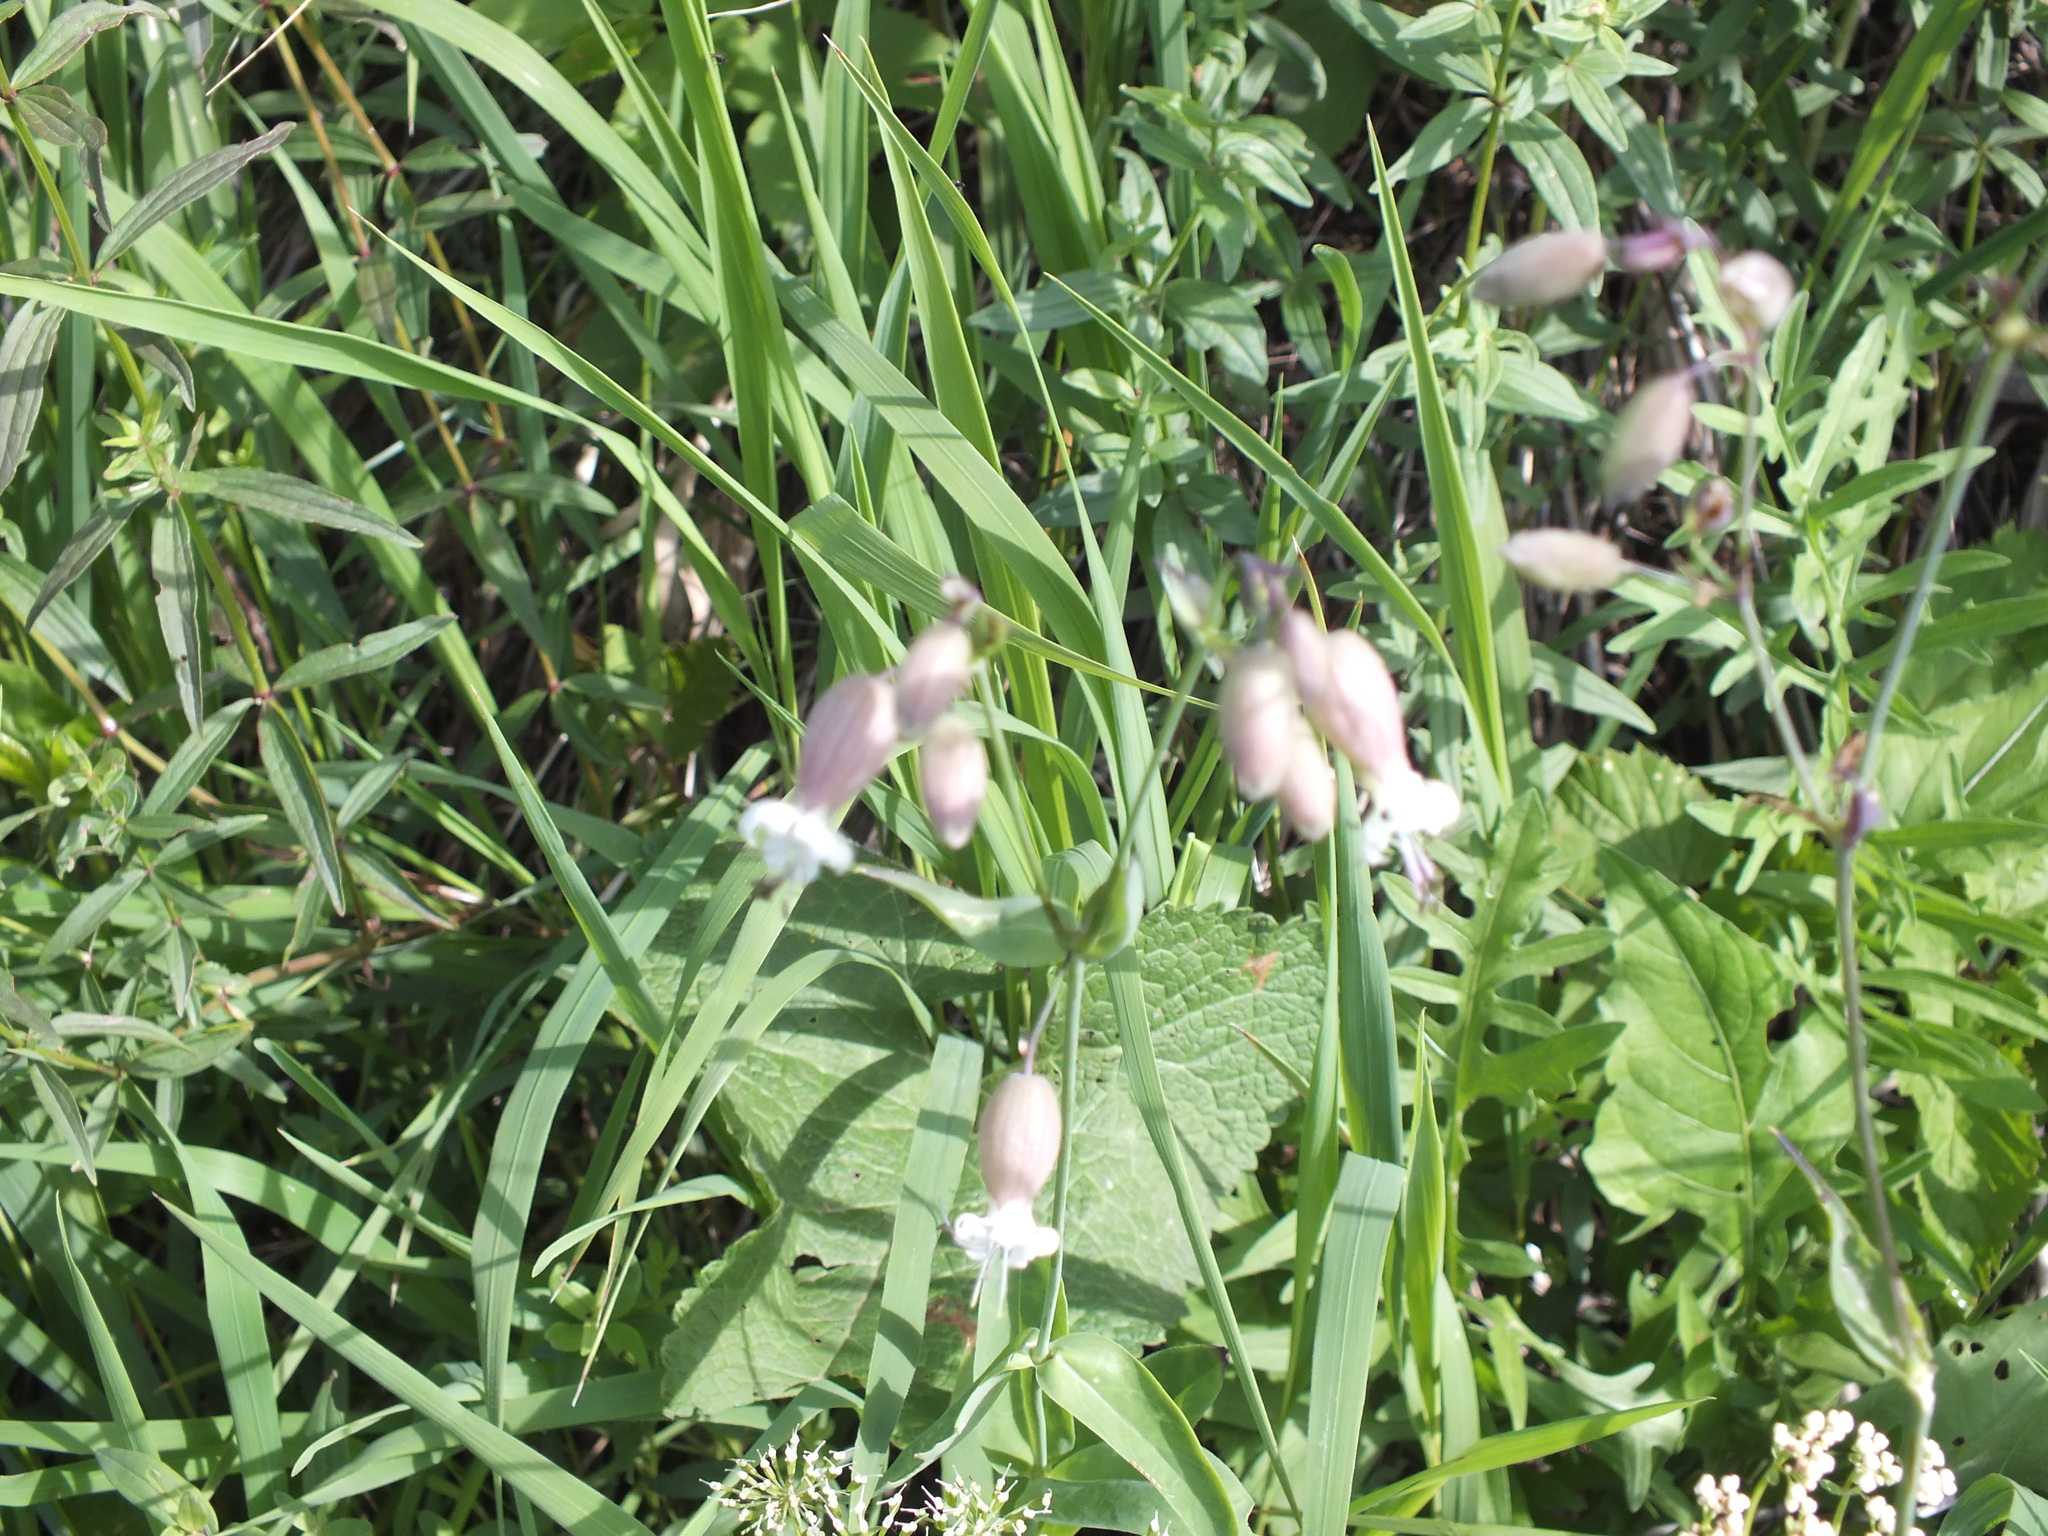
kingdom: Plantae
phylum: Tracheophyta
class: Magnoliopsida
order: Caryophyllales
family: Caryophyllaceae
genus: Silene
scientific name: Silene vulgaris
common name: Bladder campion
